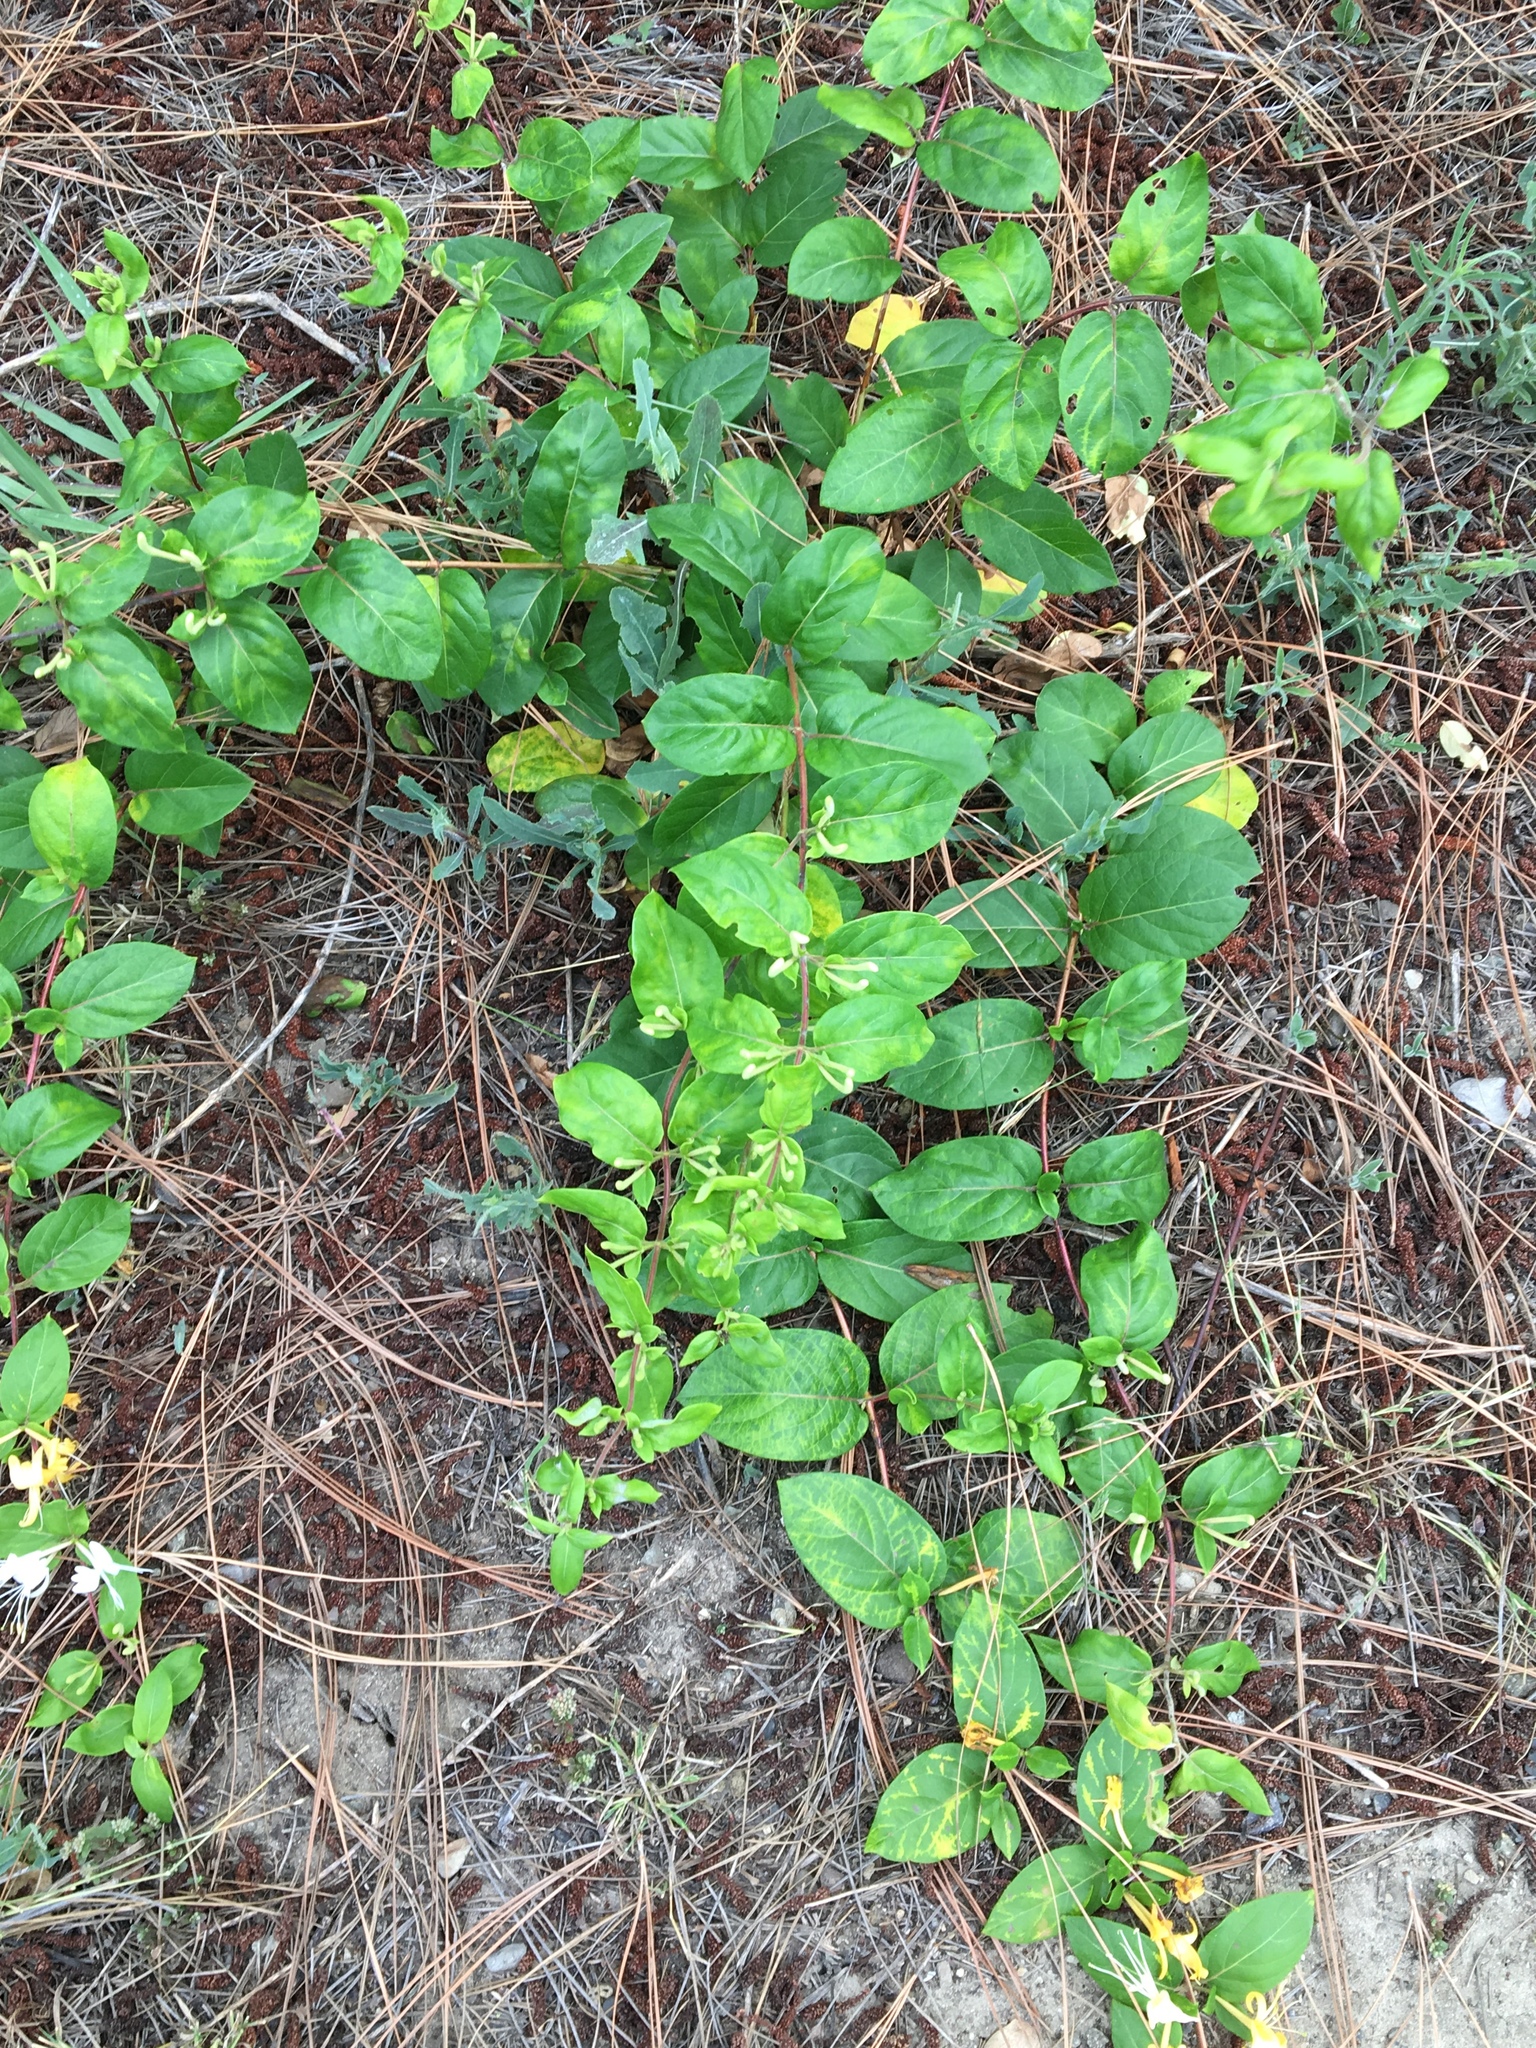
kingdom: Plantae
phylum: Tracheophyta
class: Magnoliopsida
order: Dipsacales
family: Caprifoliaceae
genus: Lonicera
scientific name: Lonicera japonica
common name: Japanese honeysuckle
